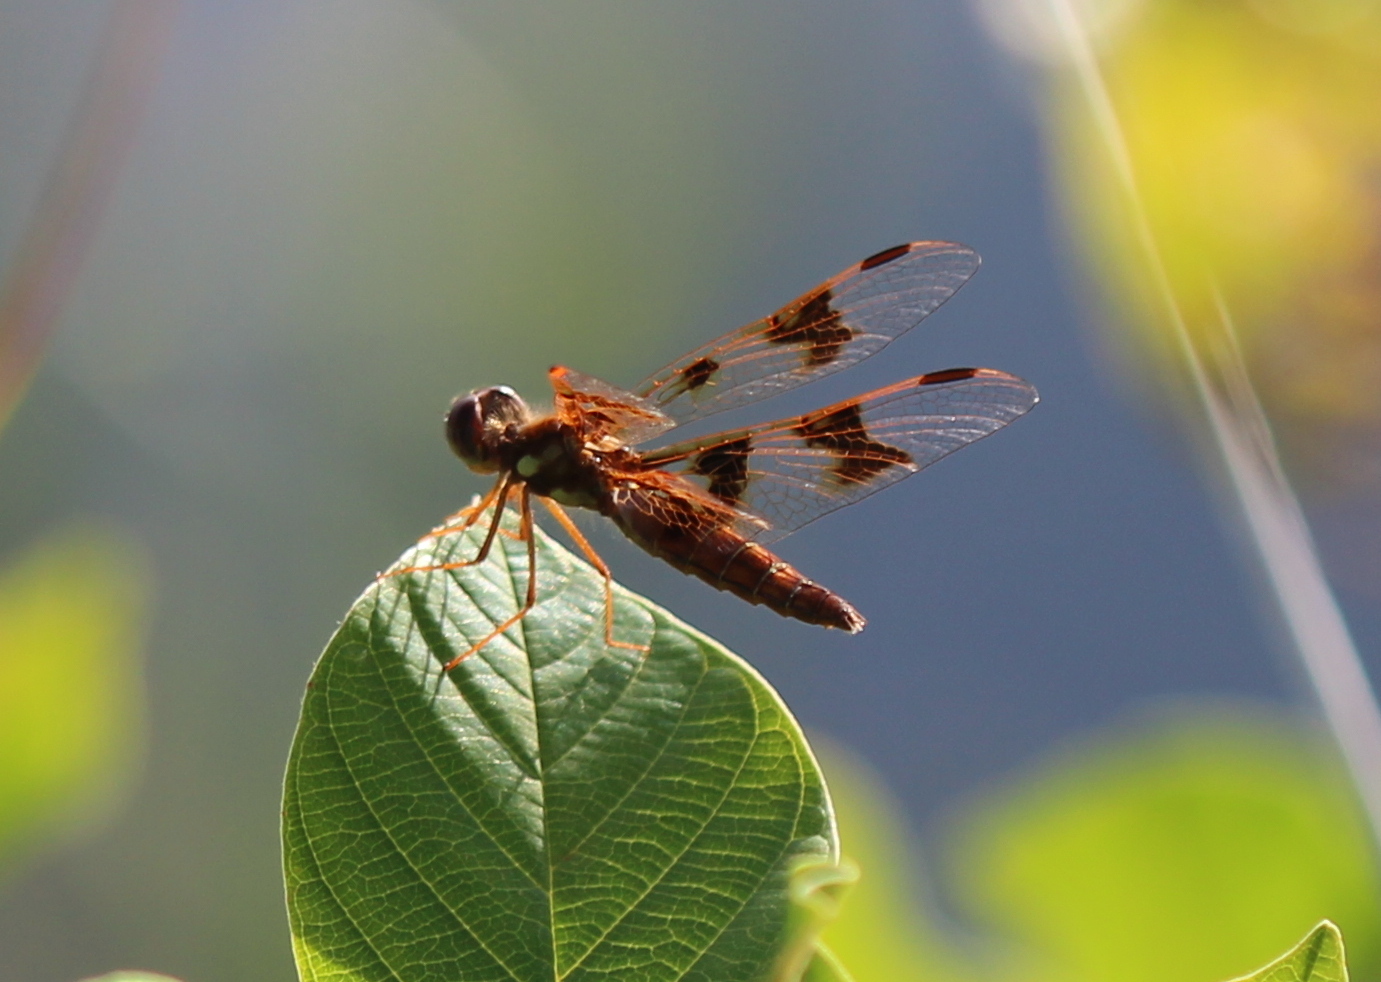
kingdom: Animalia
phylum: Arthropoda
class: Insecta
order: Odonata
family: Libellulidae
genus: Perithemis
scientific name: Perithemis tenera
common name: Eastern amberwing
